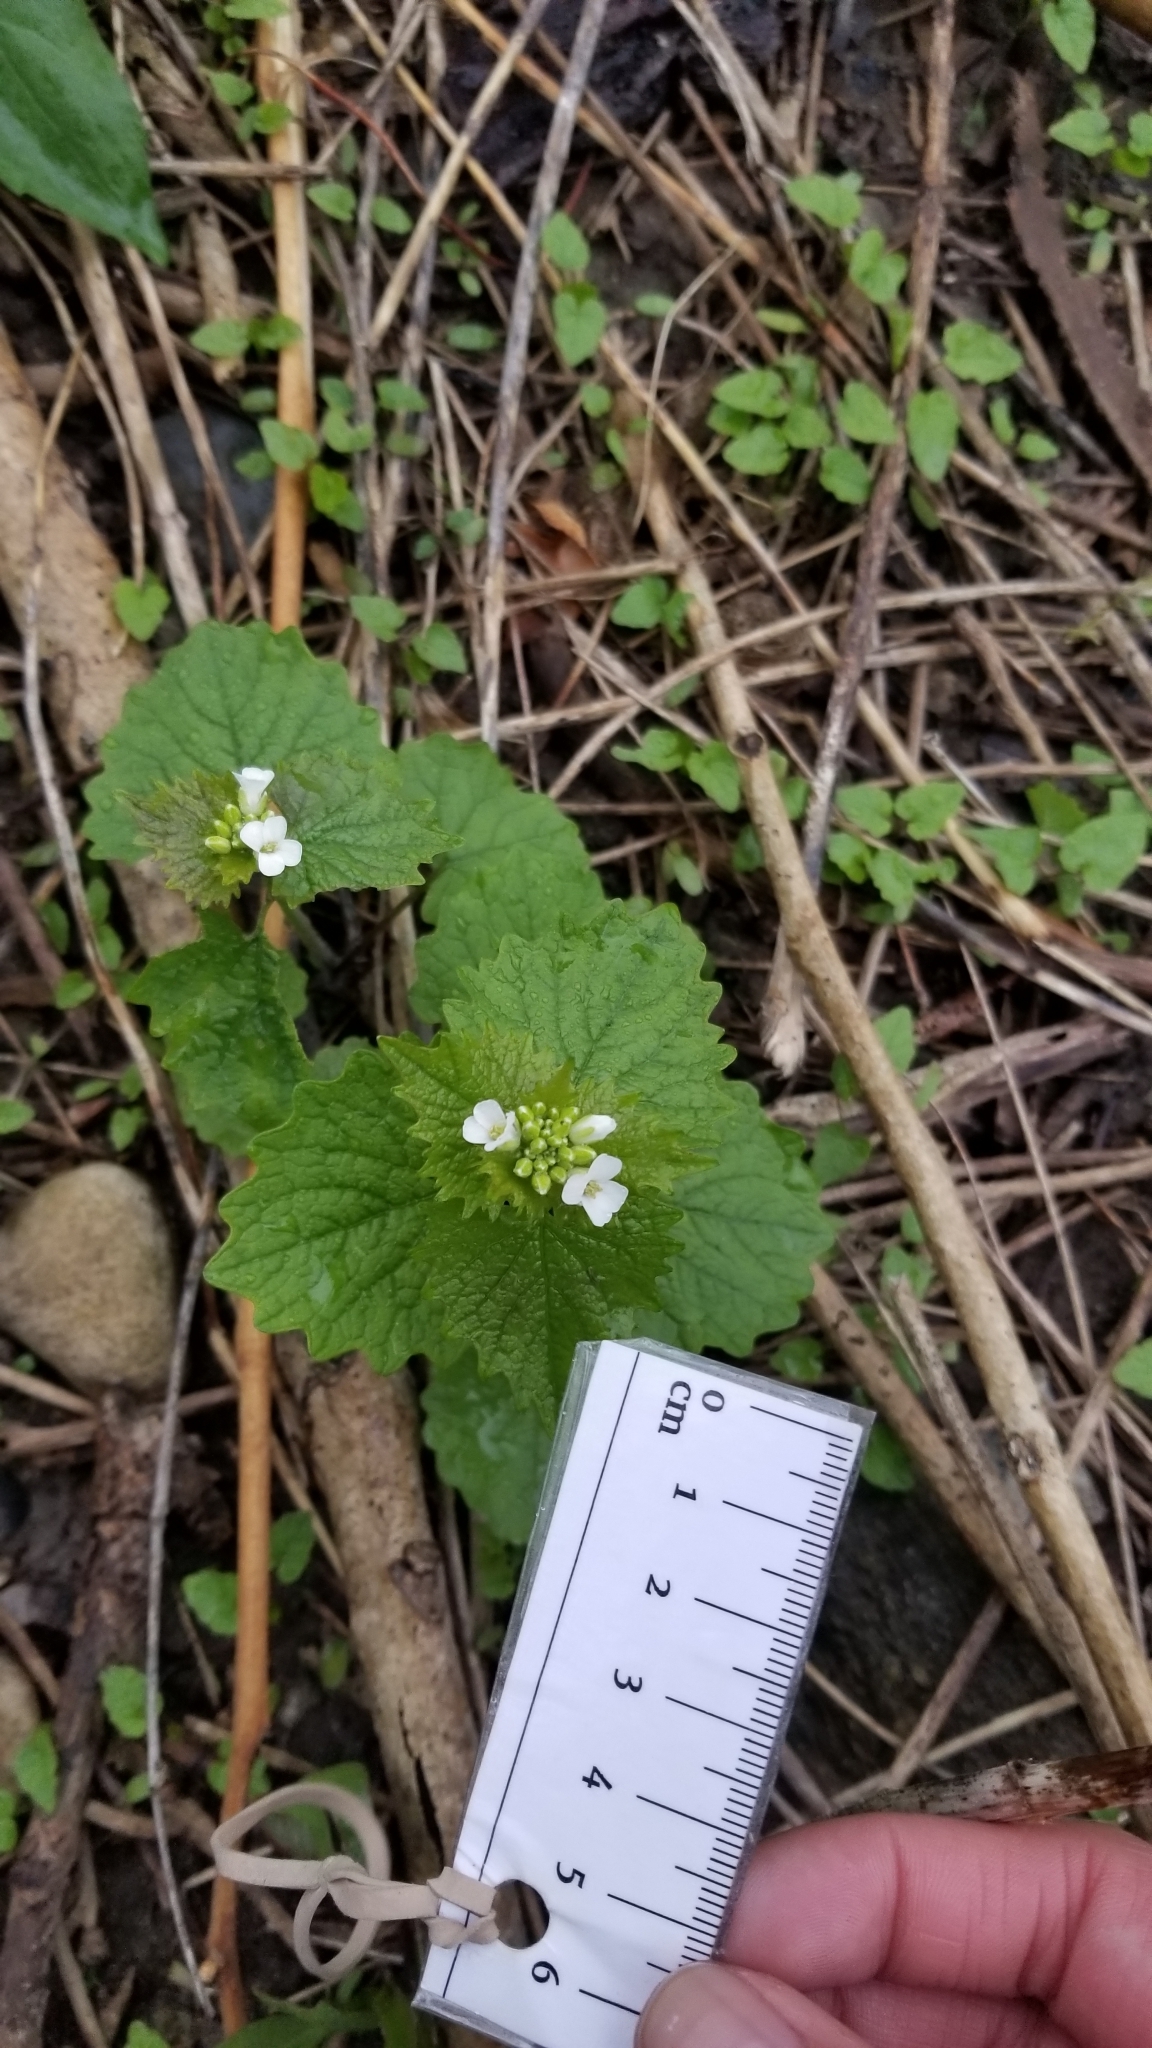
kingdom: Plantae
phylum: Tracheophyta
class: Magnoliopsida
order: Brassicales
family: Brassicaceae
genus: Alliaria
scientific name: Alliaria petiolata
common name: Garlic mustard
